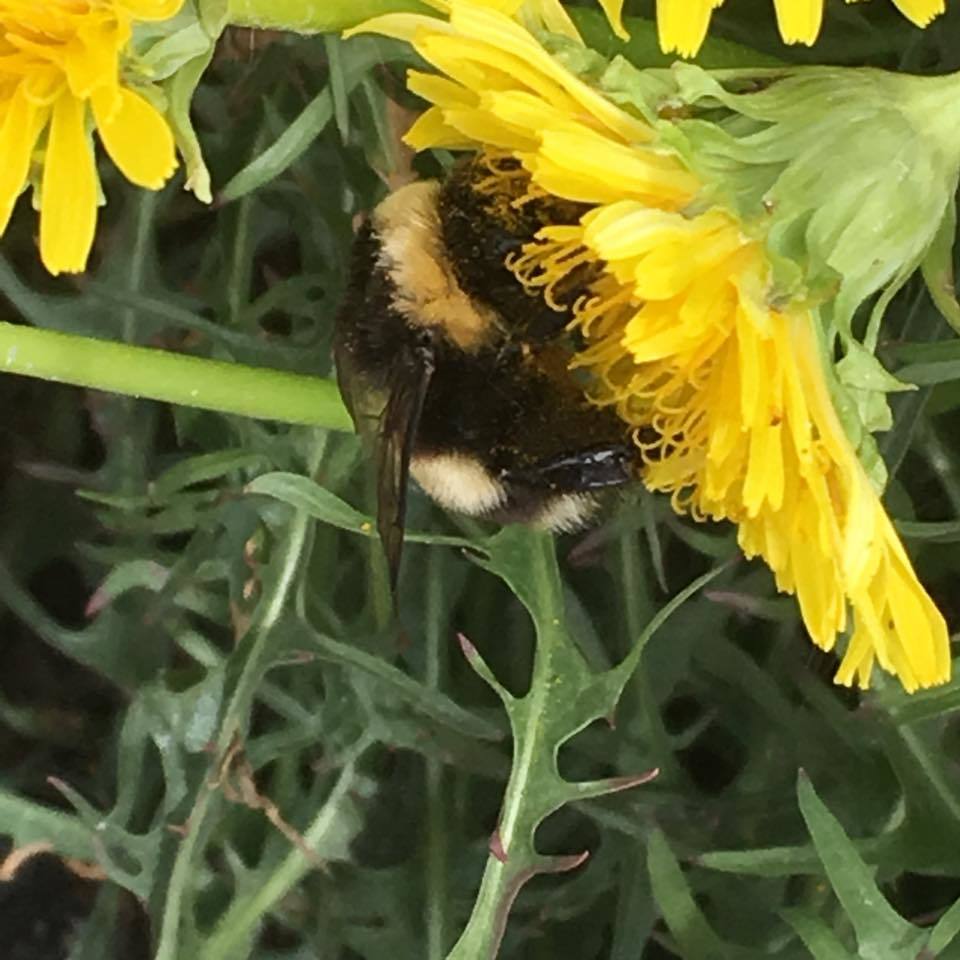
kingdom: Animalia
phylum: Arthropoda
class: Insecta
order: Hymenoptera
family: Apidae
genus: Bombus
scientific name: Bombus cryptarum
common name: Cryptic bumblebee
